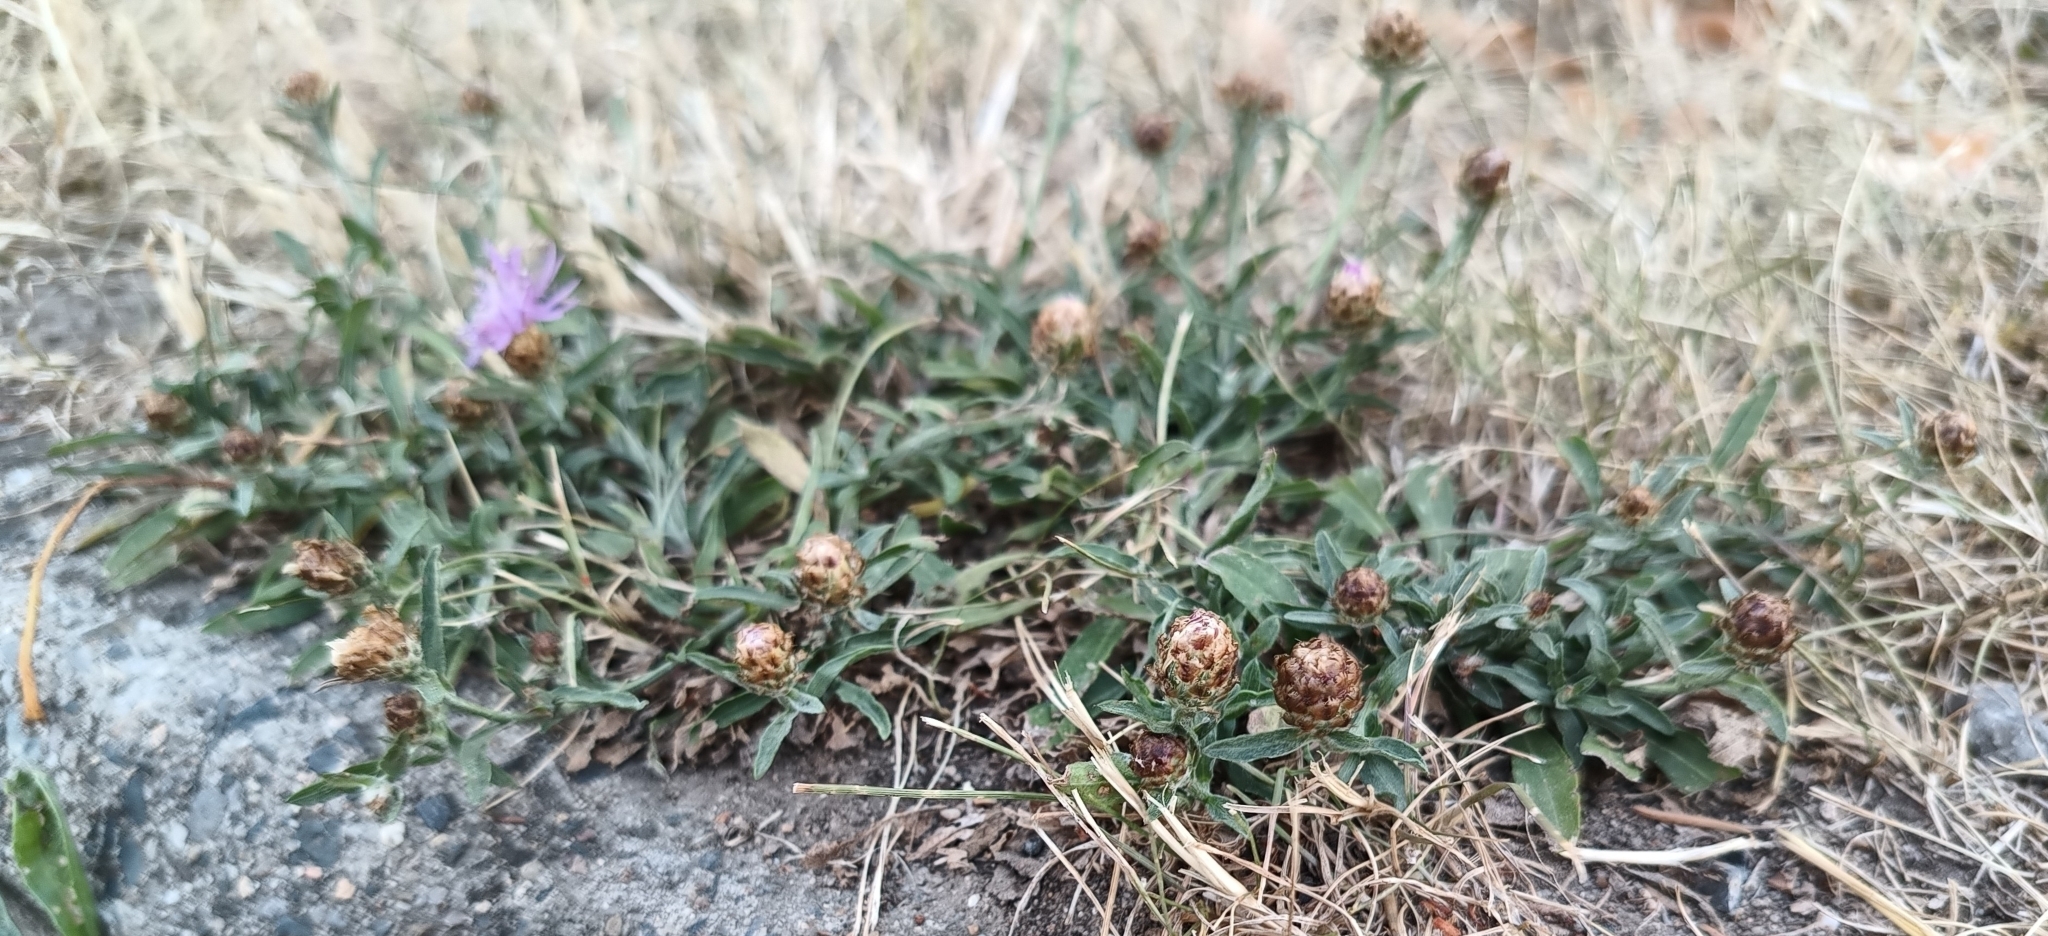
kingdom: Plantae
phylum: Tracheophyta
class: Magnoliopsida
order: Asterales
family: Asteraceae
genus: Centaurea
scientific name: Centaurea jacea
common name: Brown knapweed
